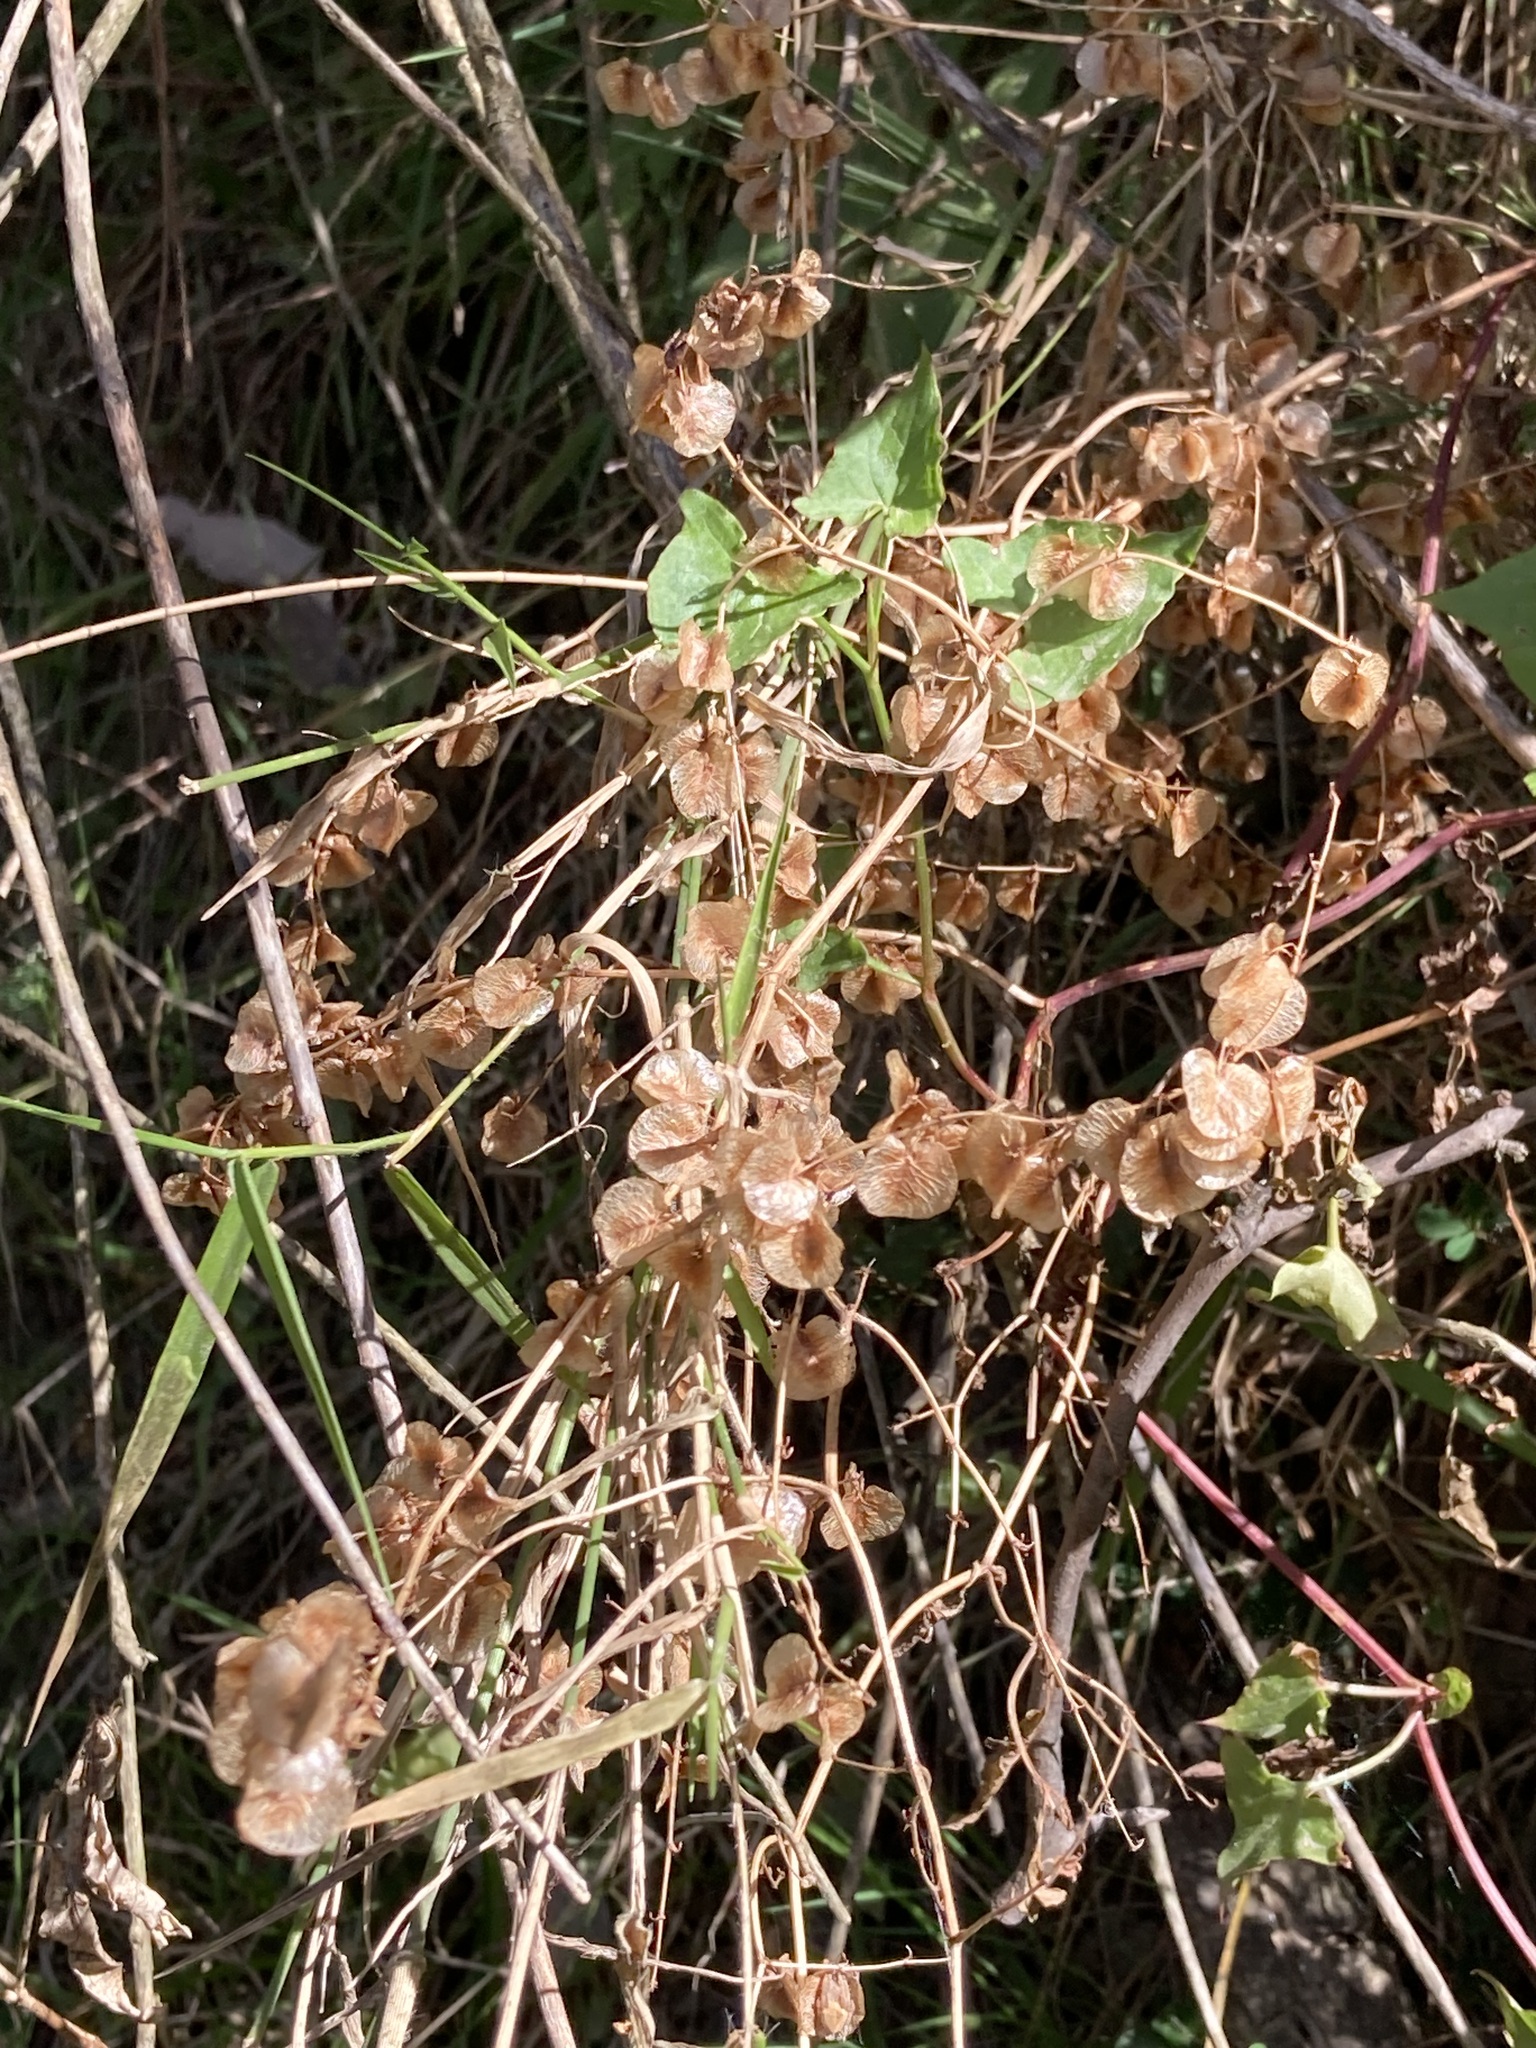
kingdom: Plantae
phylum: Tracheophyta
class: Magnoliopsida
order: Caryophyllales
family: Polygonaceae
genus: Rumex
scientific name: Rumex sagittatus
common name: Climbing dock
